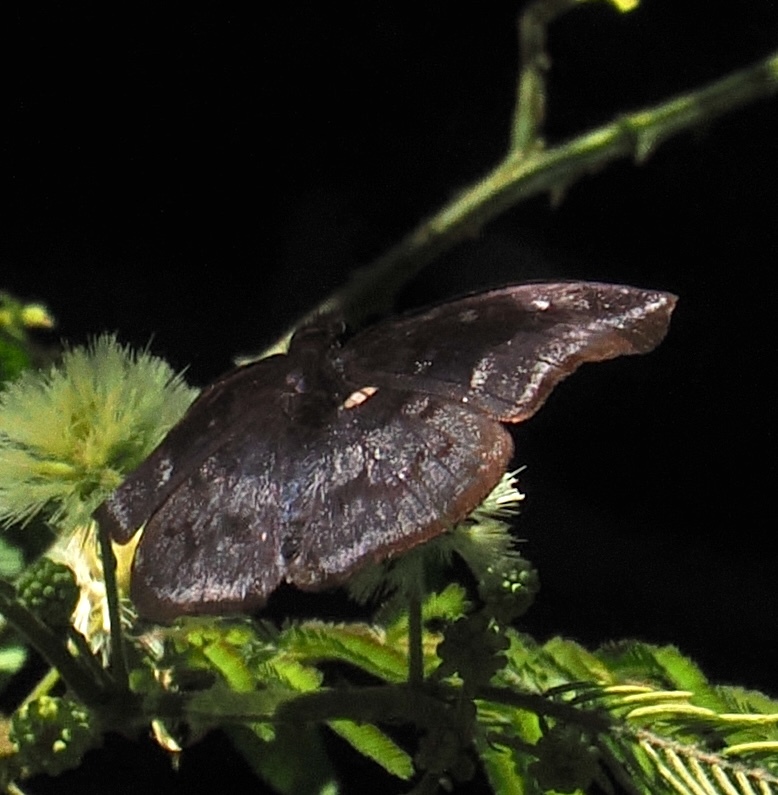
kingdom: Animalia
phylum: Arthropoda
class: Insecta
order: Lepidoptera
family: Hesperiidae
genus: Anastrus
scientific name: Anastrus ulpianus
